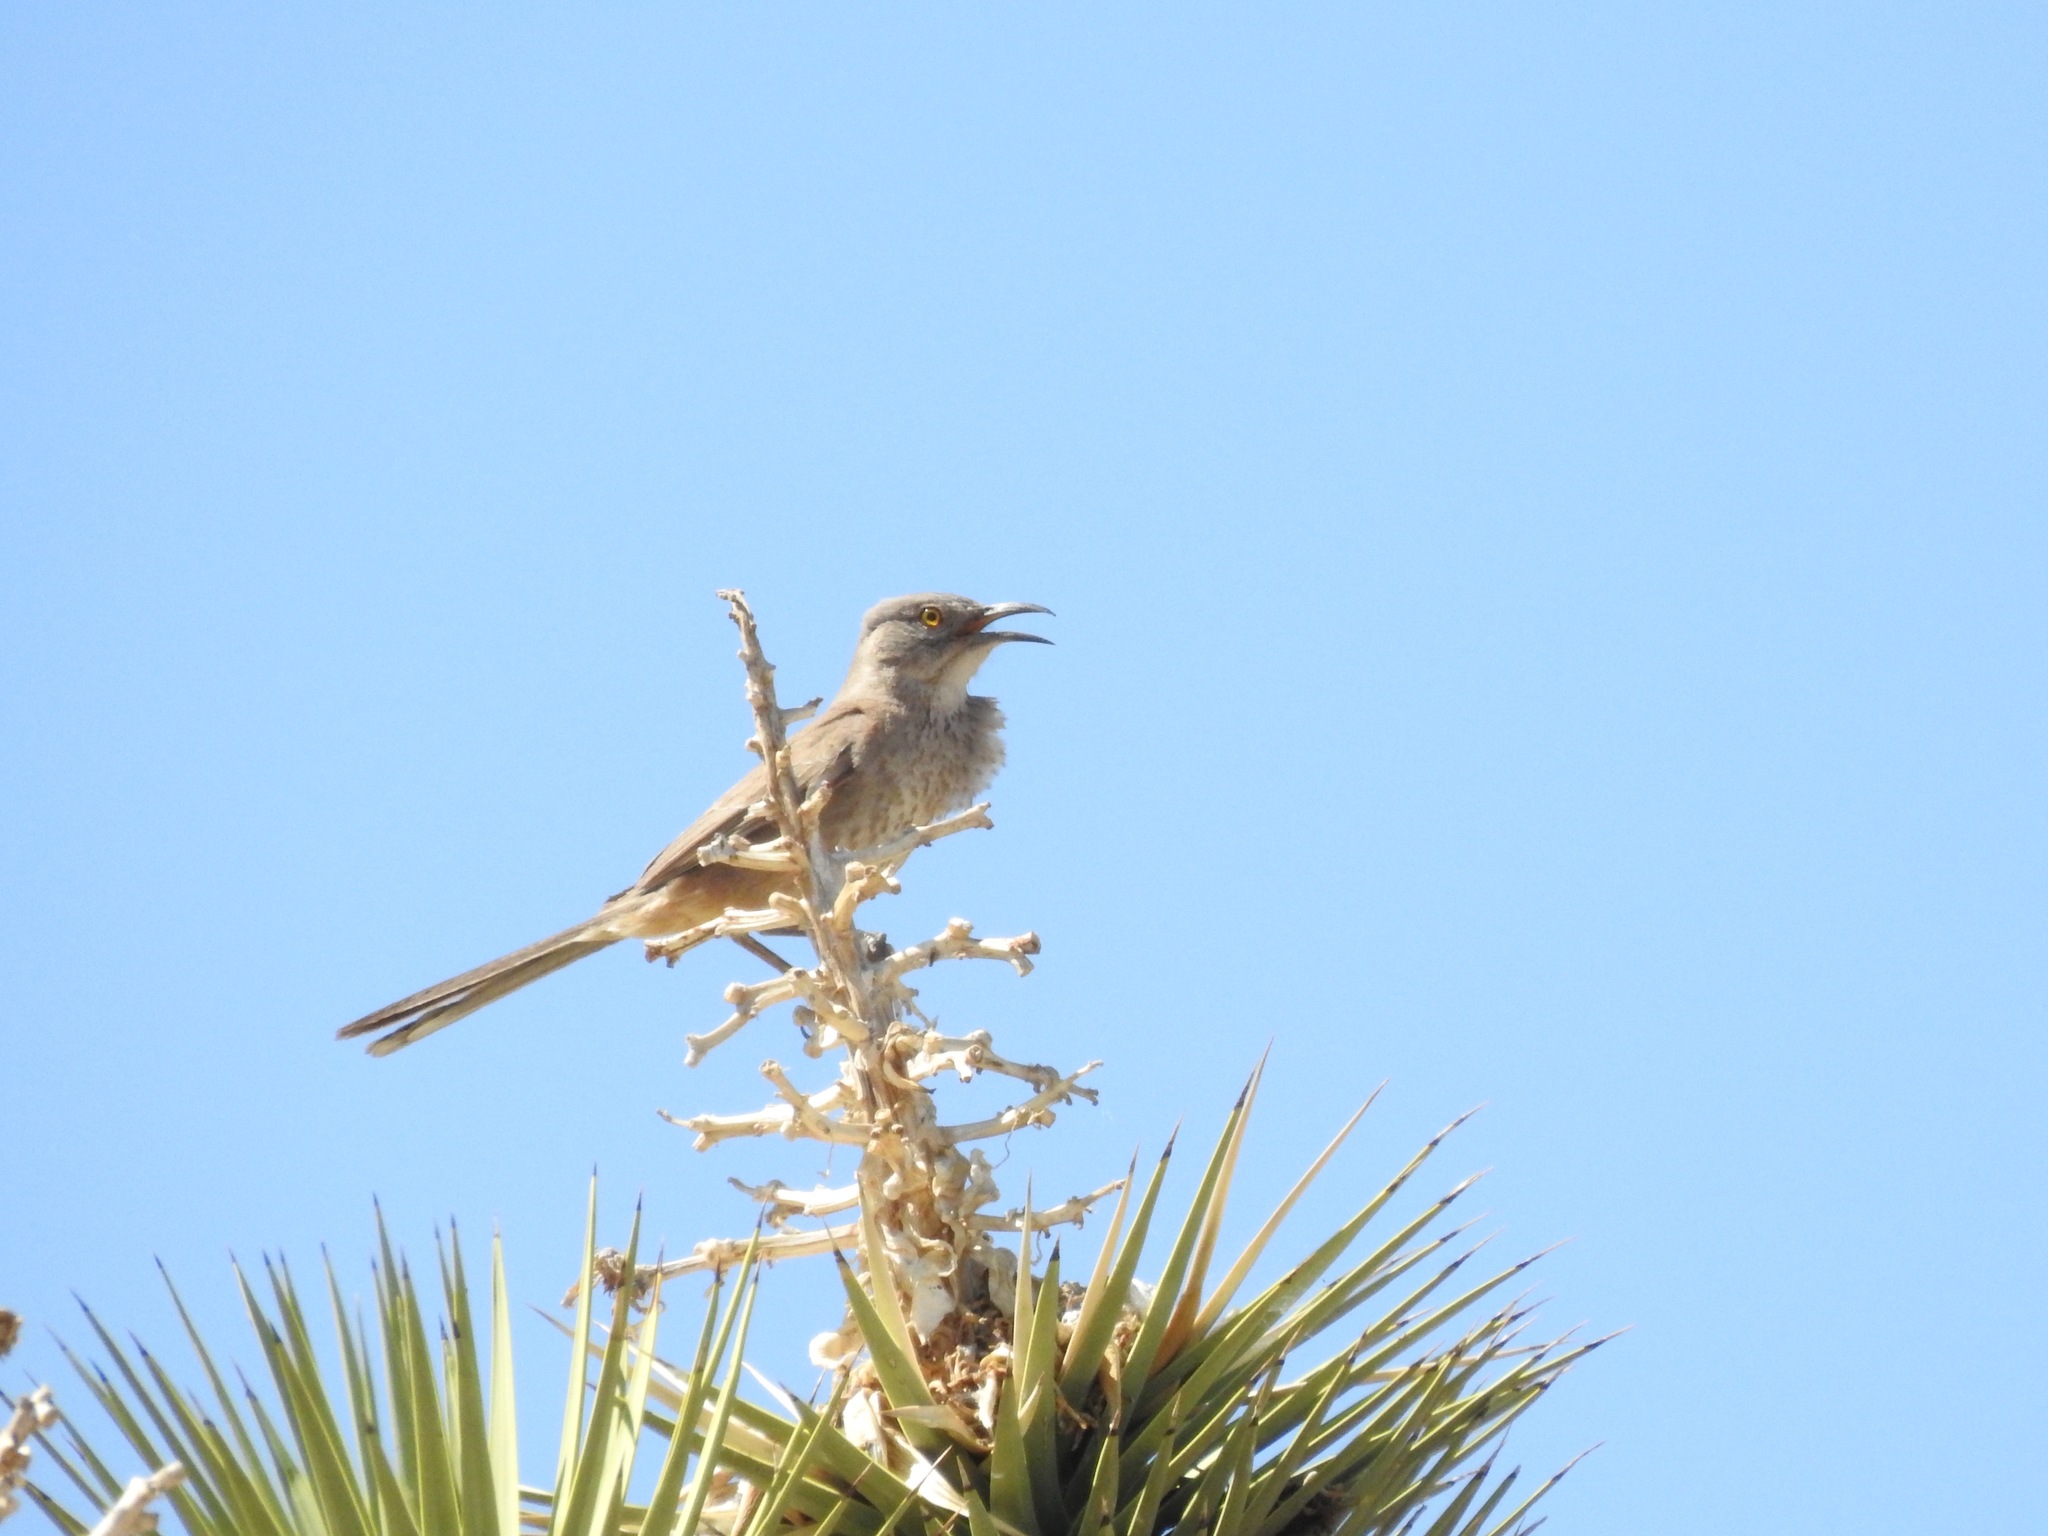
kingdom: Animalia
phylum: Chordata
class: Aves
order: Passeriformes
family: Mimidae
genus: Toxostoma
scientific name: Toxostoma bendirei
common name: Bendire's thrasher
